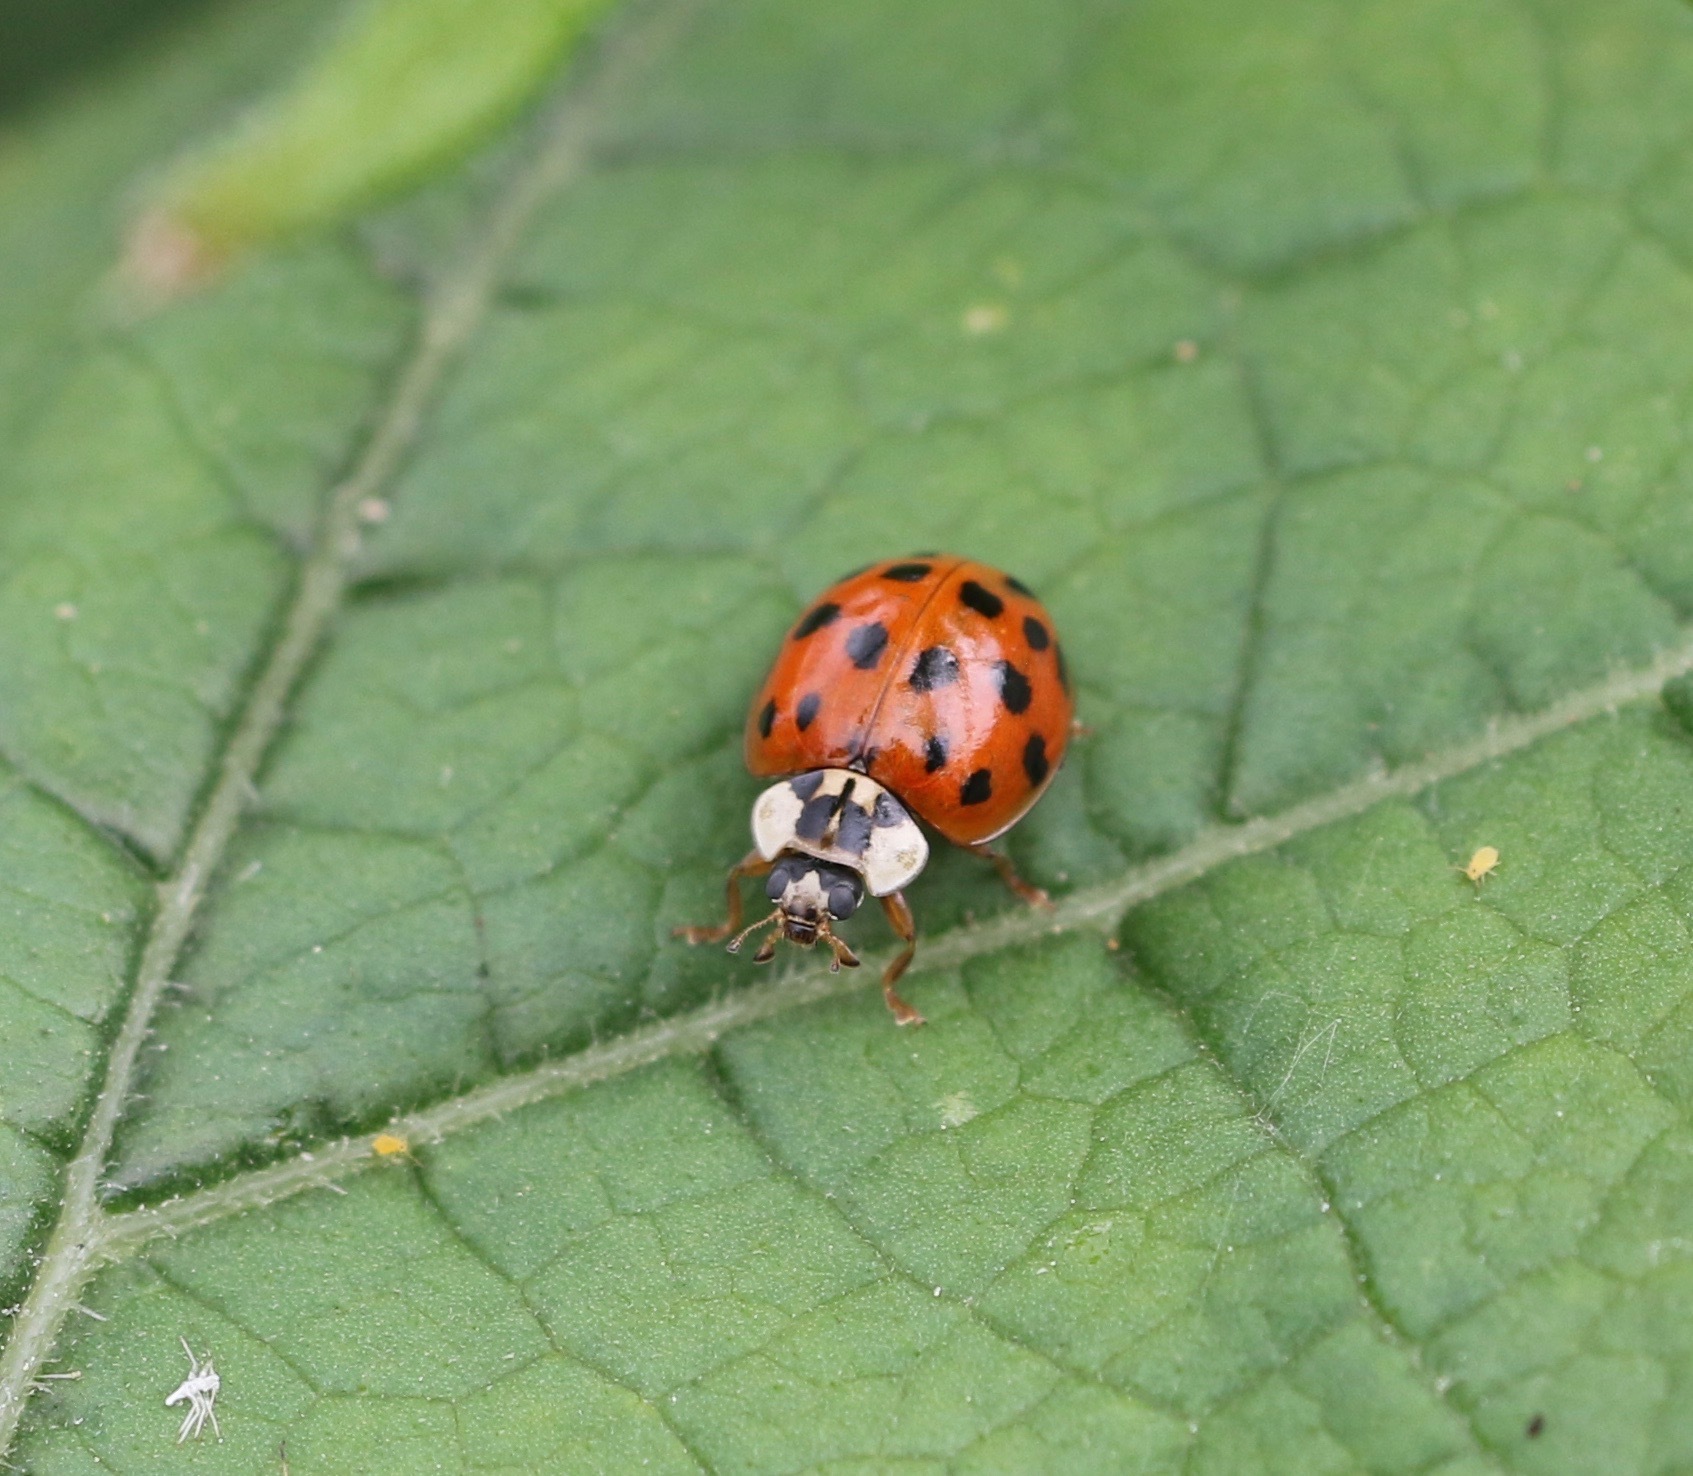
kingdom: Animalia
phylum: Arthropoda
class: Insecta
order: Coleoptera
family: Coccinellidae
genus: Harmonia
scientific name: Harmonia axyridis
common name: Harlequin ladybird
